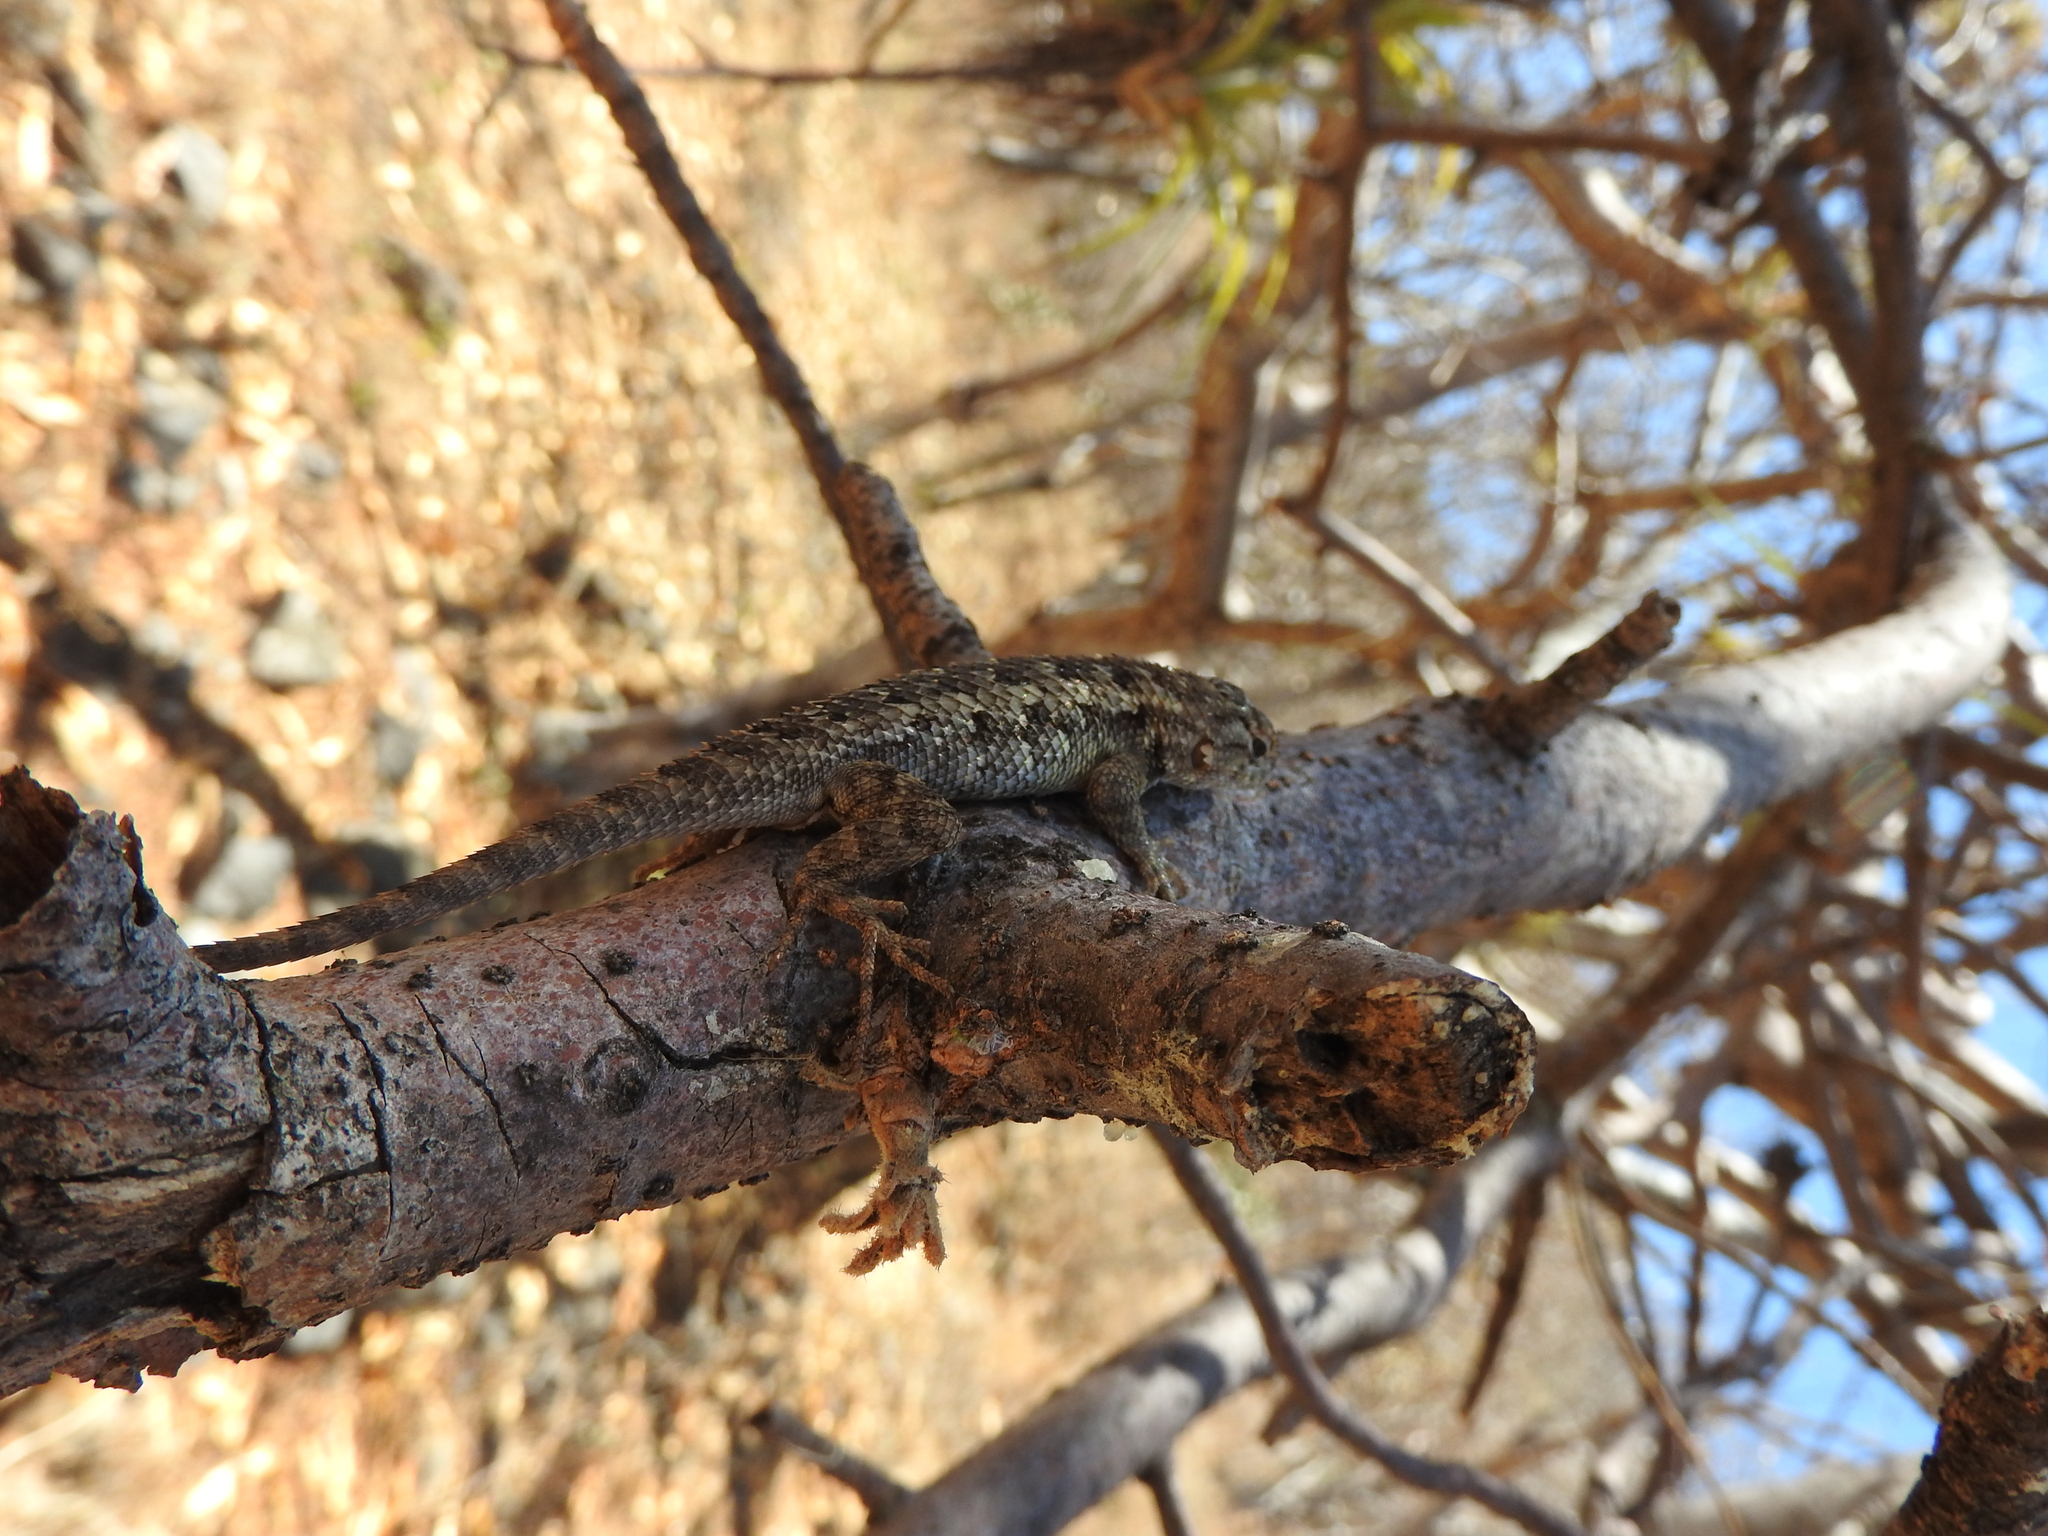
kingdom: Animalia
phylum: Chordata
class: Squamata
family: Phrynosomatidae
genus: Sceloporus
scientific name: Sceloporus spinosus
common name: Blue-spotted spiny lizard [caeruleopunctatus]
